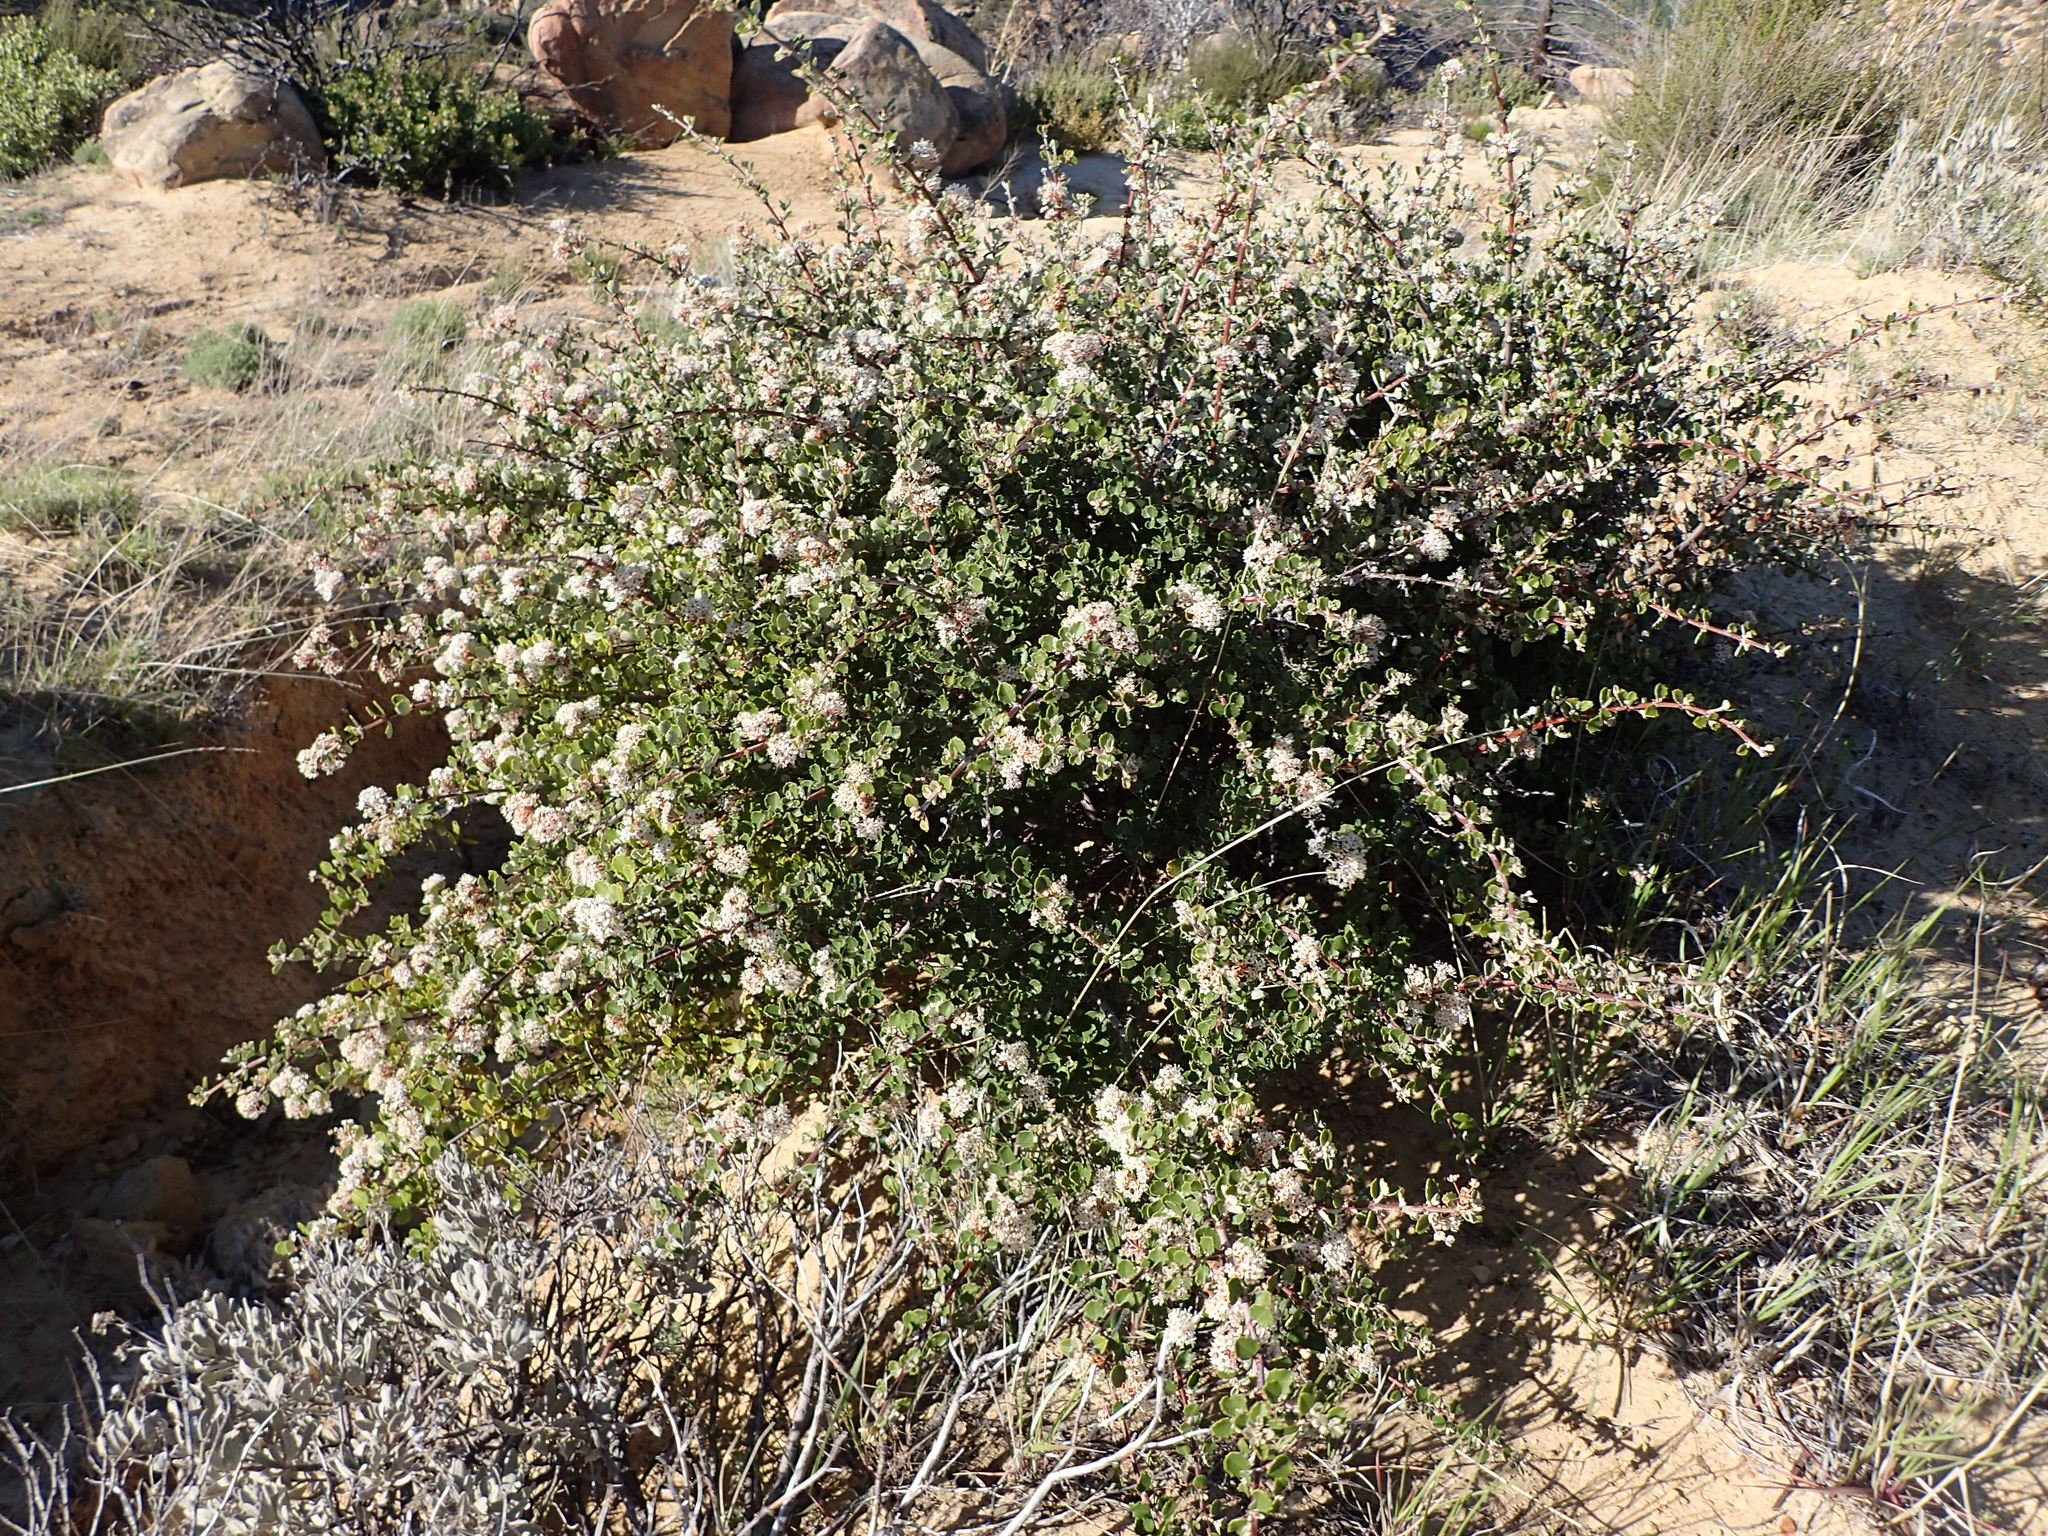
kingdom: Plantae
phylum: Tracheophyta
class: Magnoliopsida
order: Rosales
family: Rhamnaceae
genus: Ceanothus
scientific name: Ceanothus crassifolius
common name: Hoaryleaf ceanothus
